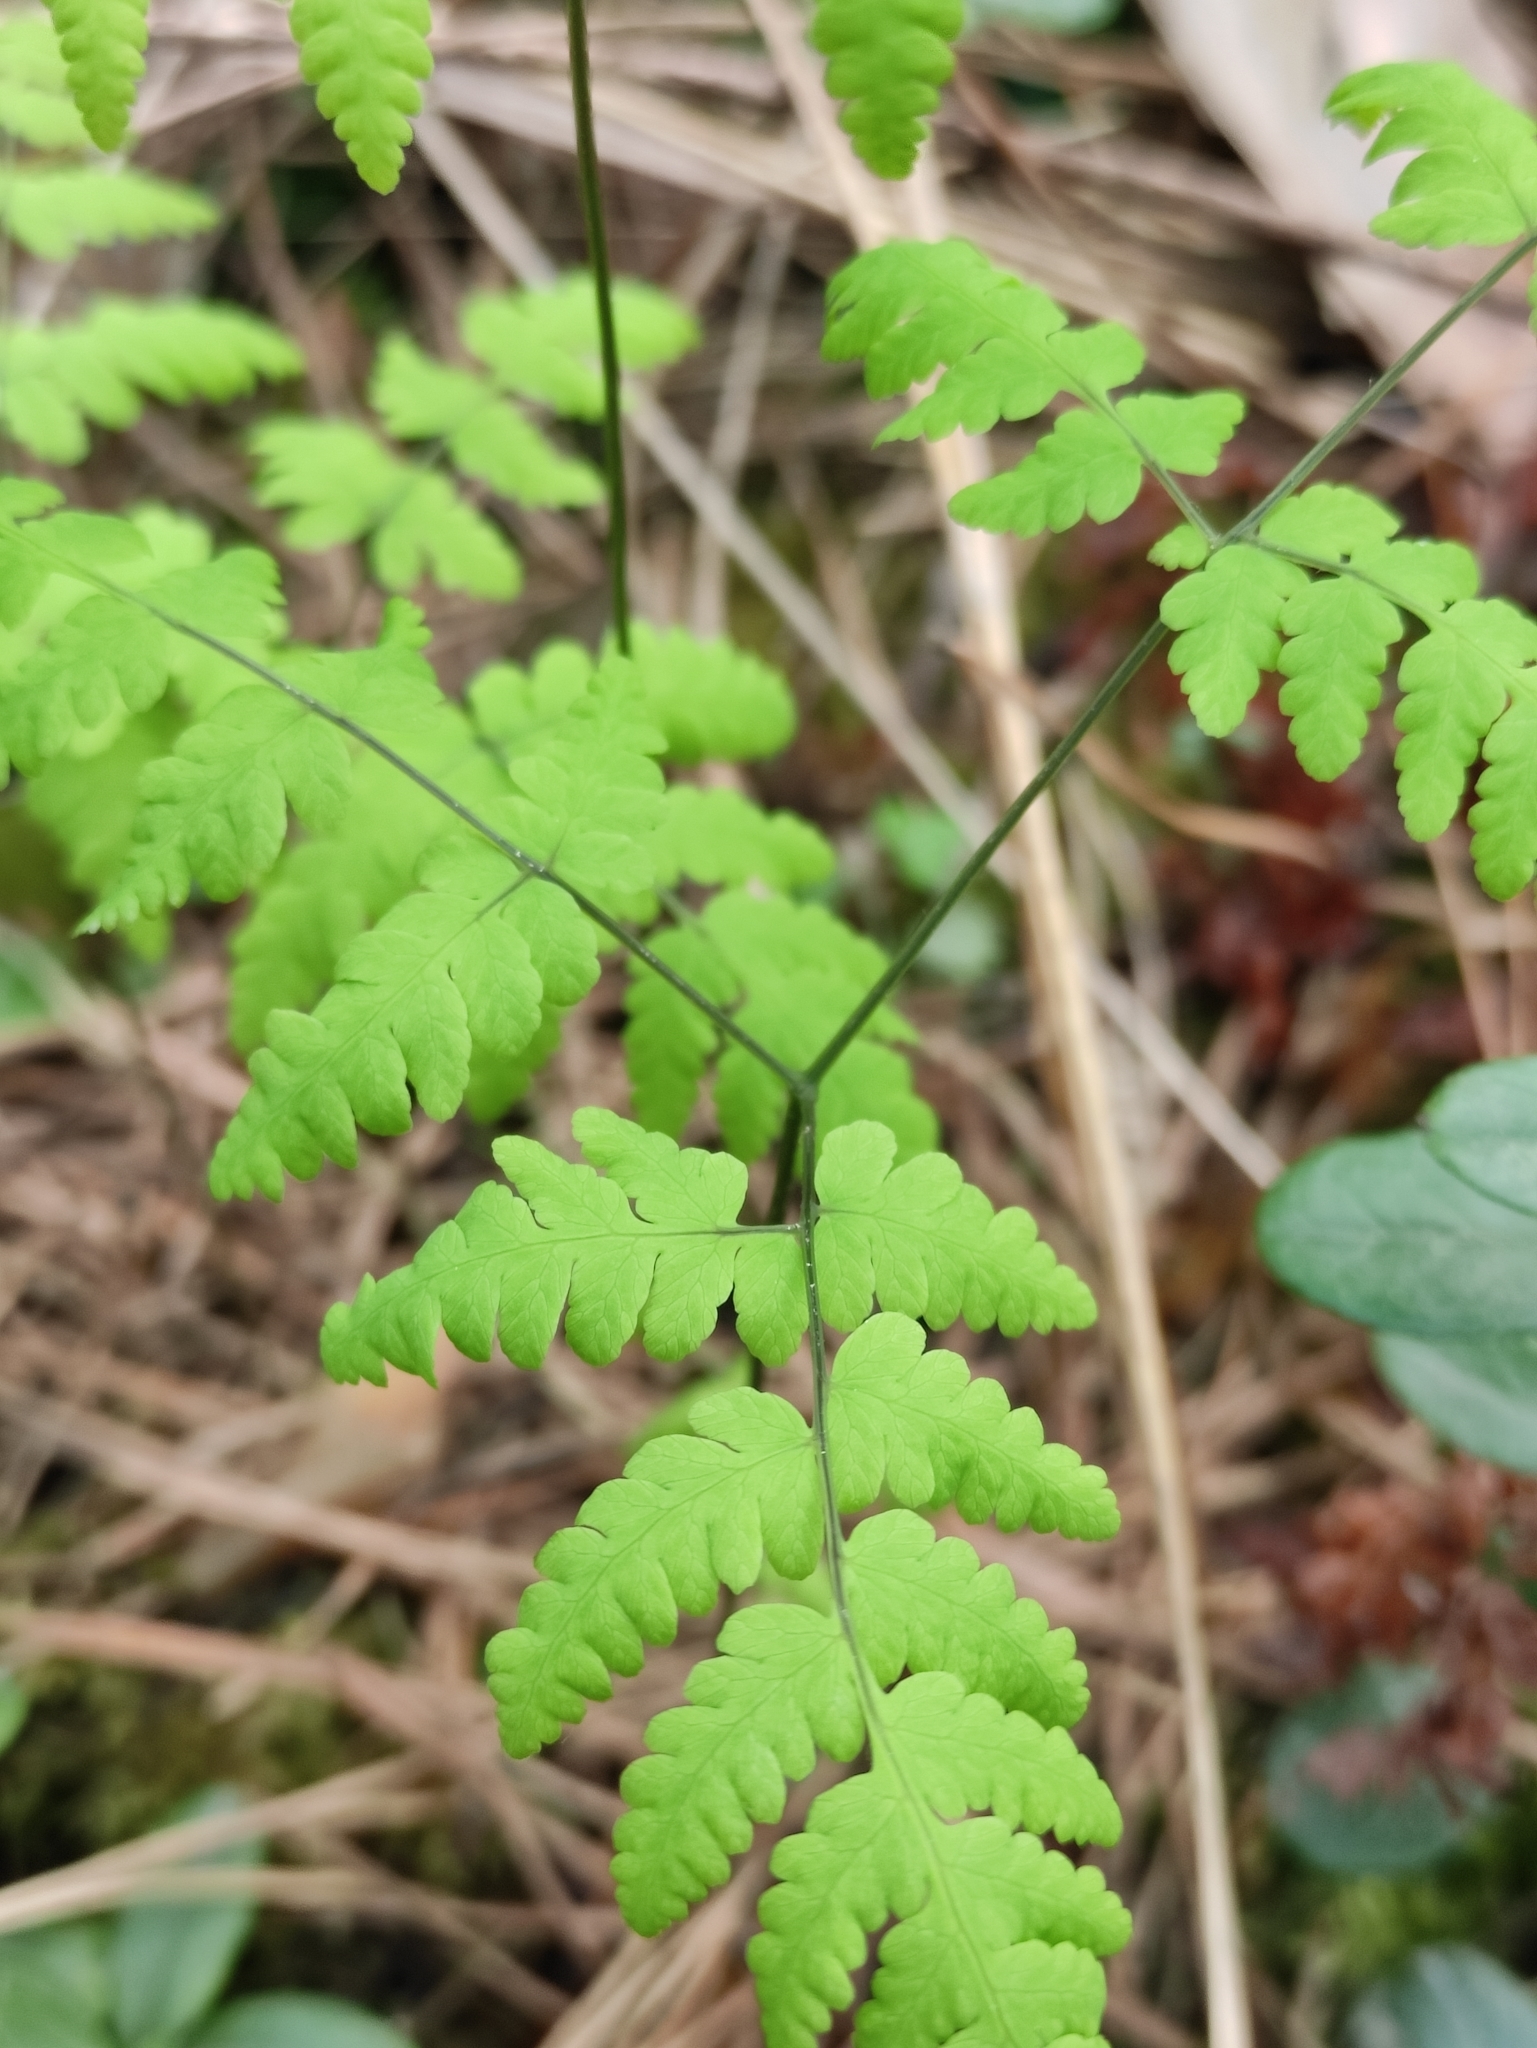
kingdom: Plantae
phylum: Tracheophyta
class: Polypodiopsida
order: Polypodiales
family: Cystopteridaceae
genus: Gymnocarpium
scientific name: Gymnocarpium dryopteris
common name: Oak fern
